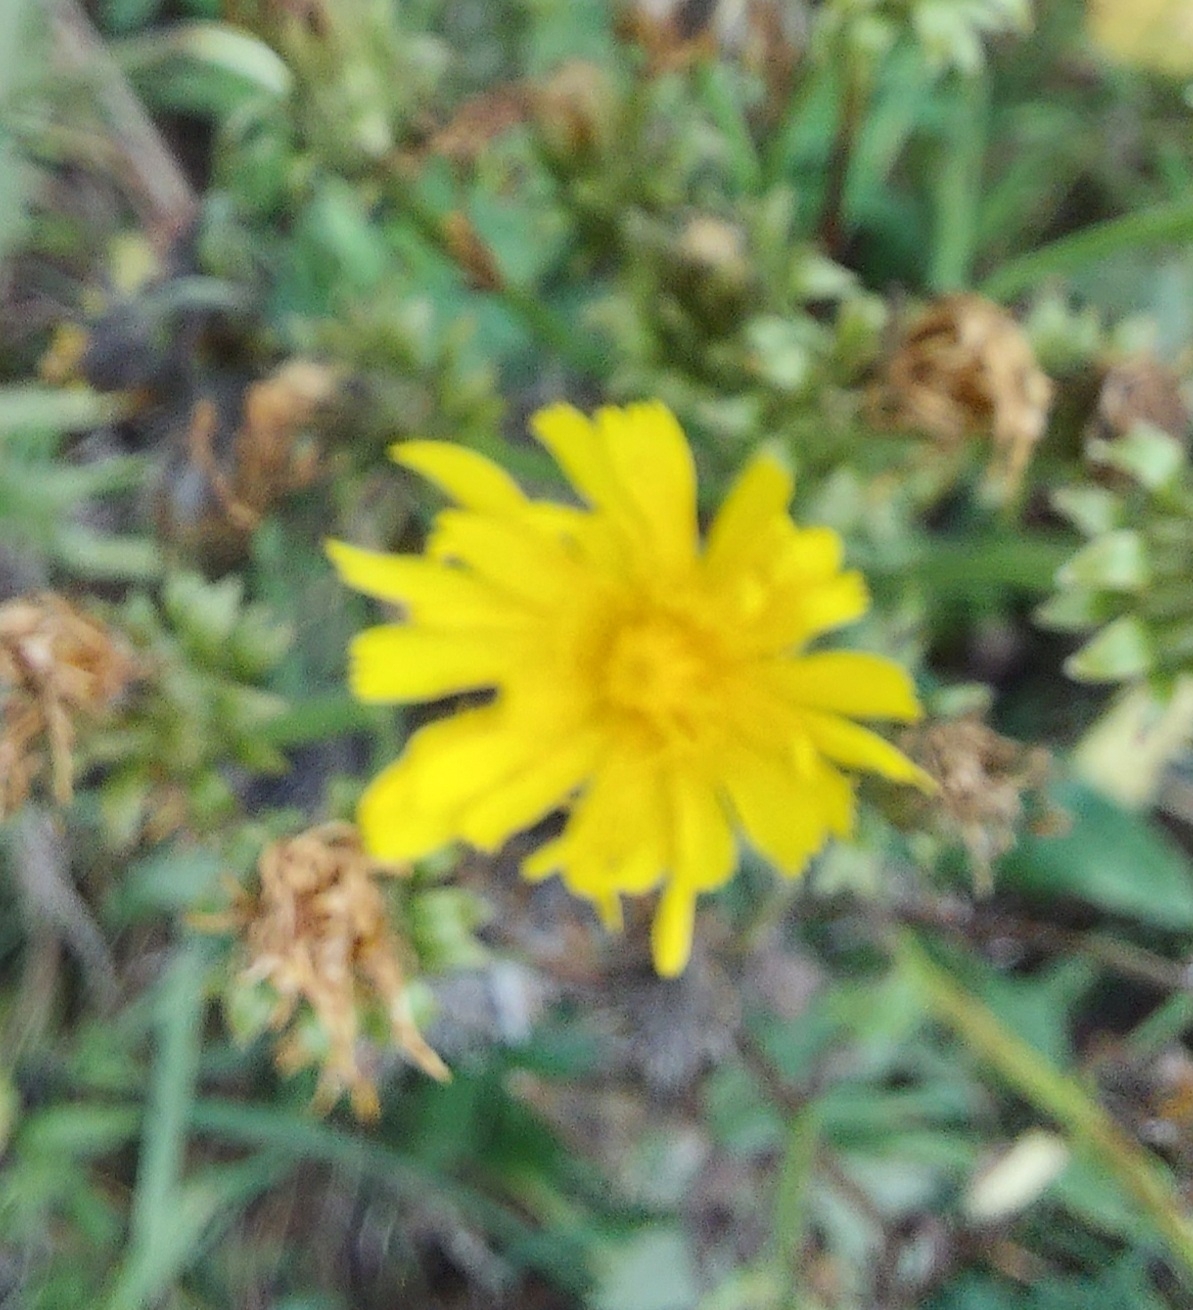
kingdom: Plantae
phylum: Tracheophyta
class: Magnoliopsida
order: Asterales
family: Asteraceae
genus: Picris
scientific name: Picris hieracioides
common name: Hawkweed oxtongue
